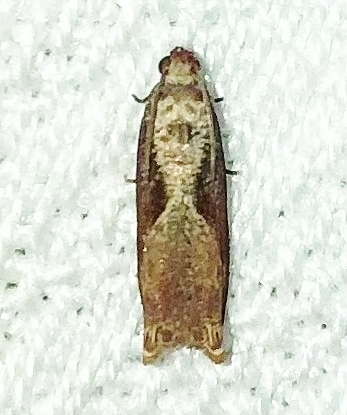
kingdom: Animalia
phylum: Arthropoda
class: Insecta
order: Lepidoptera
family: Tortricidae
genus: Episimus
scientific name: Episimus tyrius
